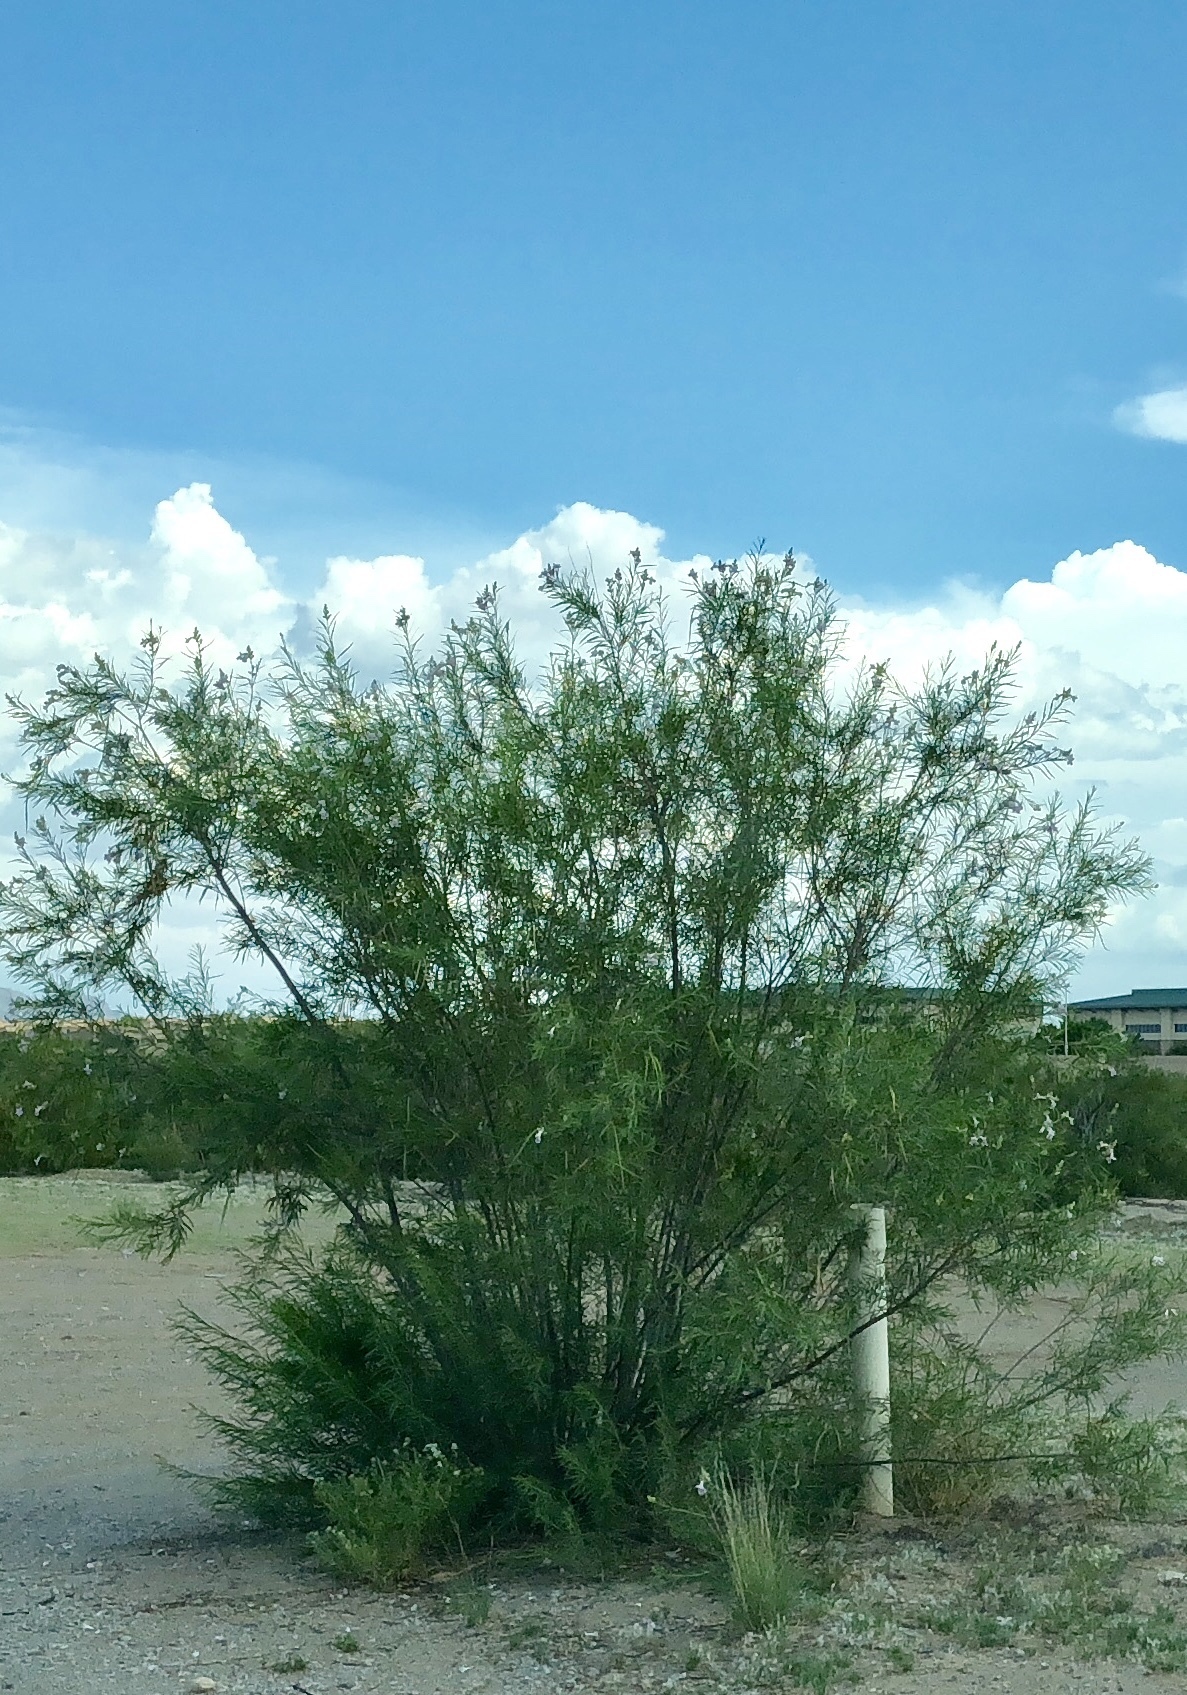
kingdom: Plantae
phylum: Tracheophyta
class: Magnoliopsida
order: Lamiales
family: Bignoniaceae
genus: Chilopsis
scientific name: Chilopsis linearis
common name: Desert-willow
